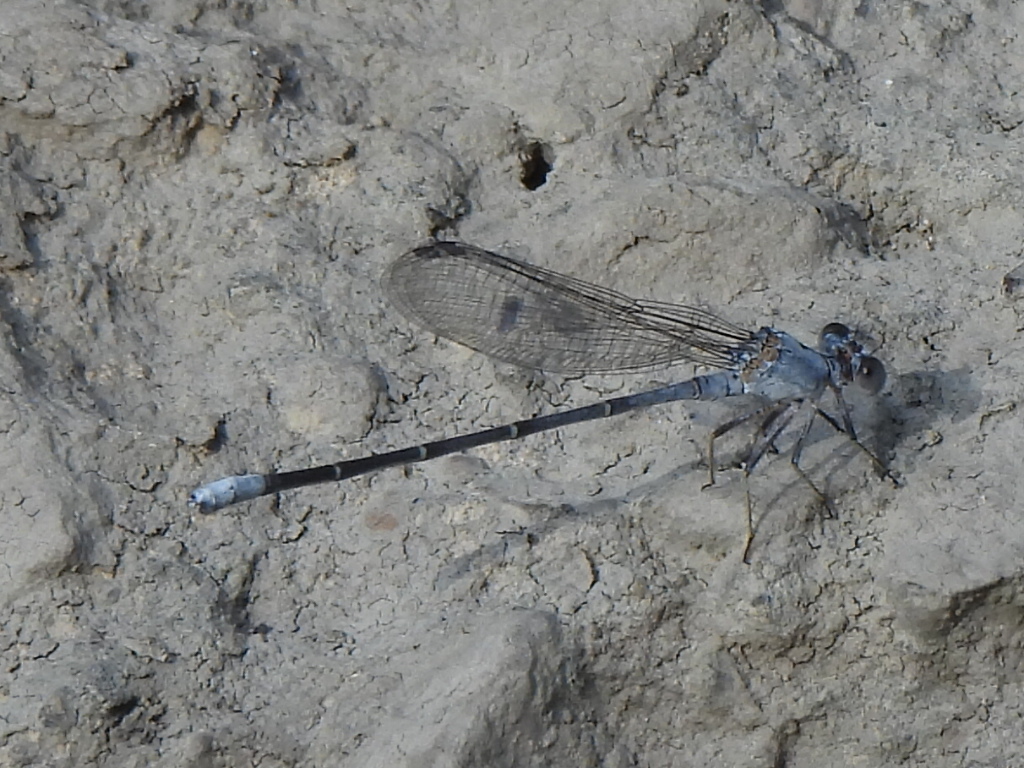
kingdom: Animalia
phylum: Arthropoda
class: Insecta
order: Odonata
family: Coenagrionidae
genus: Argia
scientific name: Argia moesta
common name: Powdered dancer
